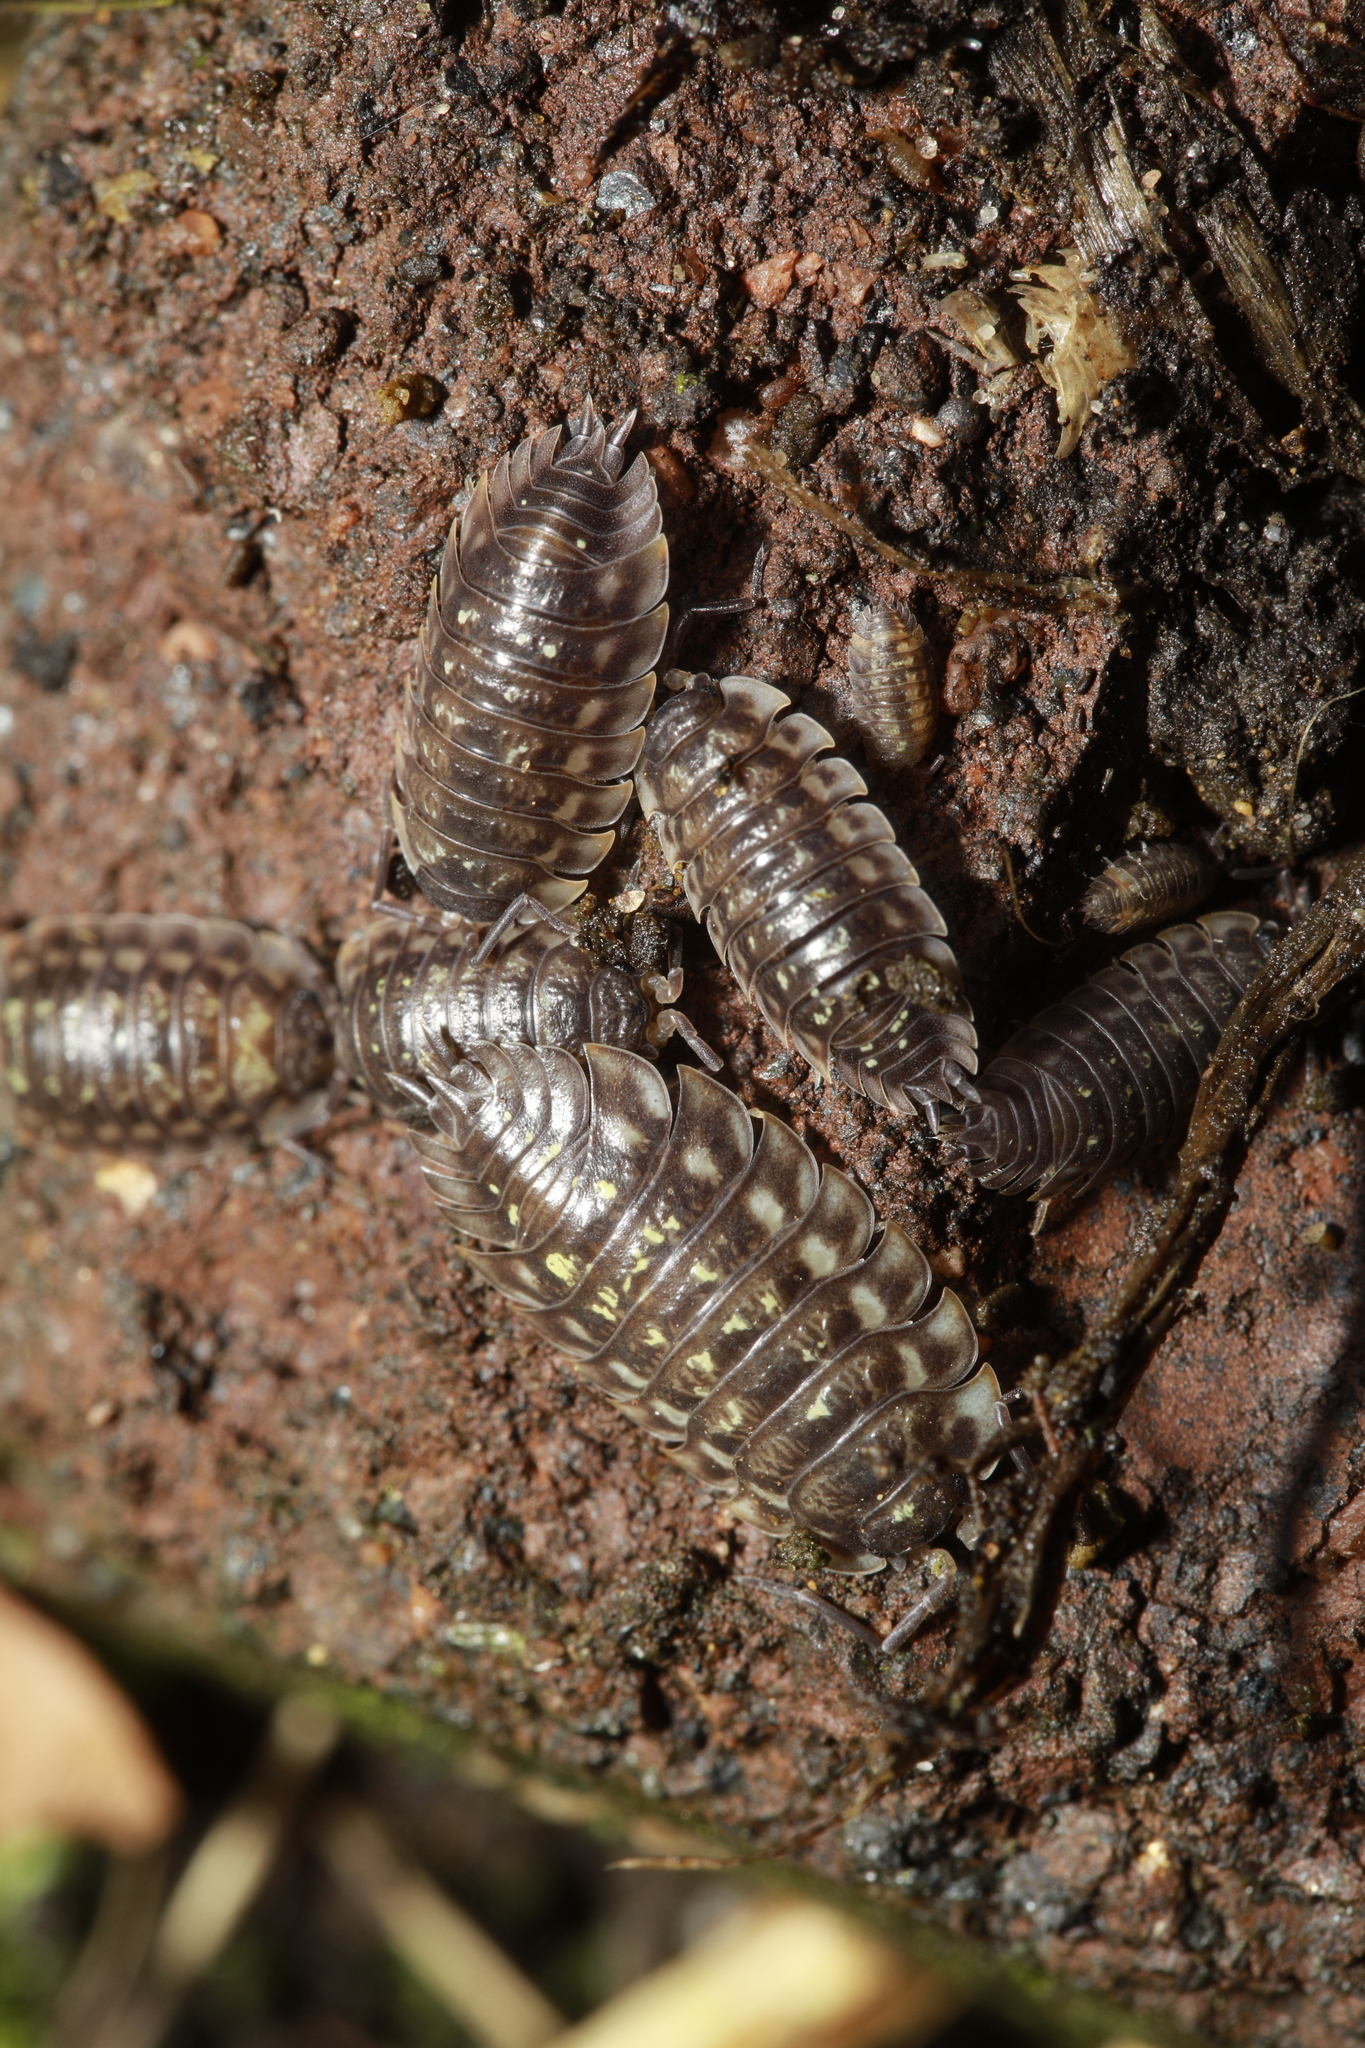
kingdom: Animalia
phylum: Arthropoda
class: Malacostraca
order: Isopoda
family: Oniscidae
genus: Oniscus
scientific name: Oniscus asellus
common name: Common shiny woodlouse
